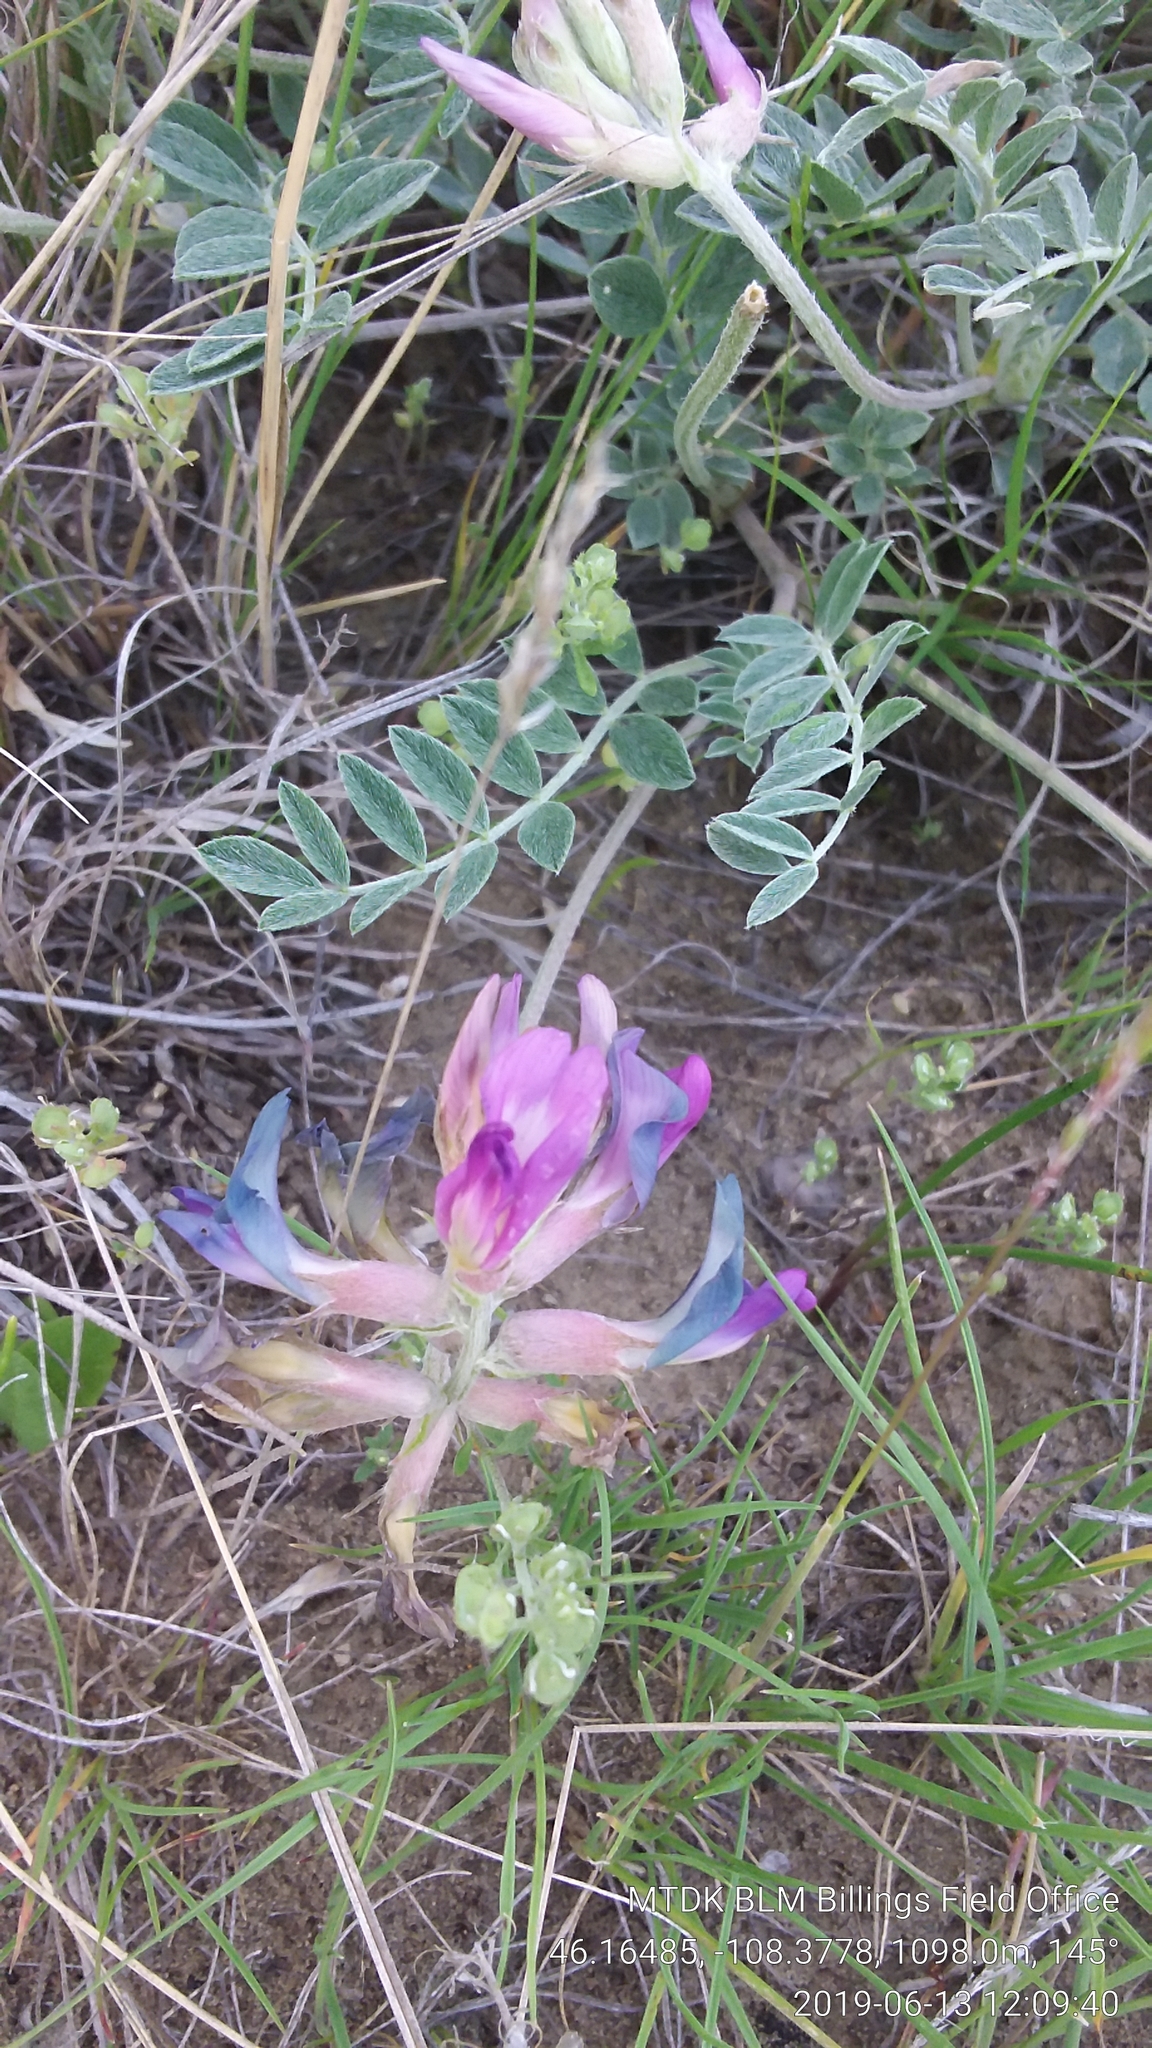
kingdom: Plantae
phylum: Tracheophyta
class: Magnoliopsida
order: Fabales
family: Fabaceae
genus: Astragalus
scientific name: Astragalus missouriensis
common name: Missouri milk-vetch
